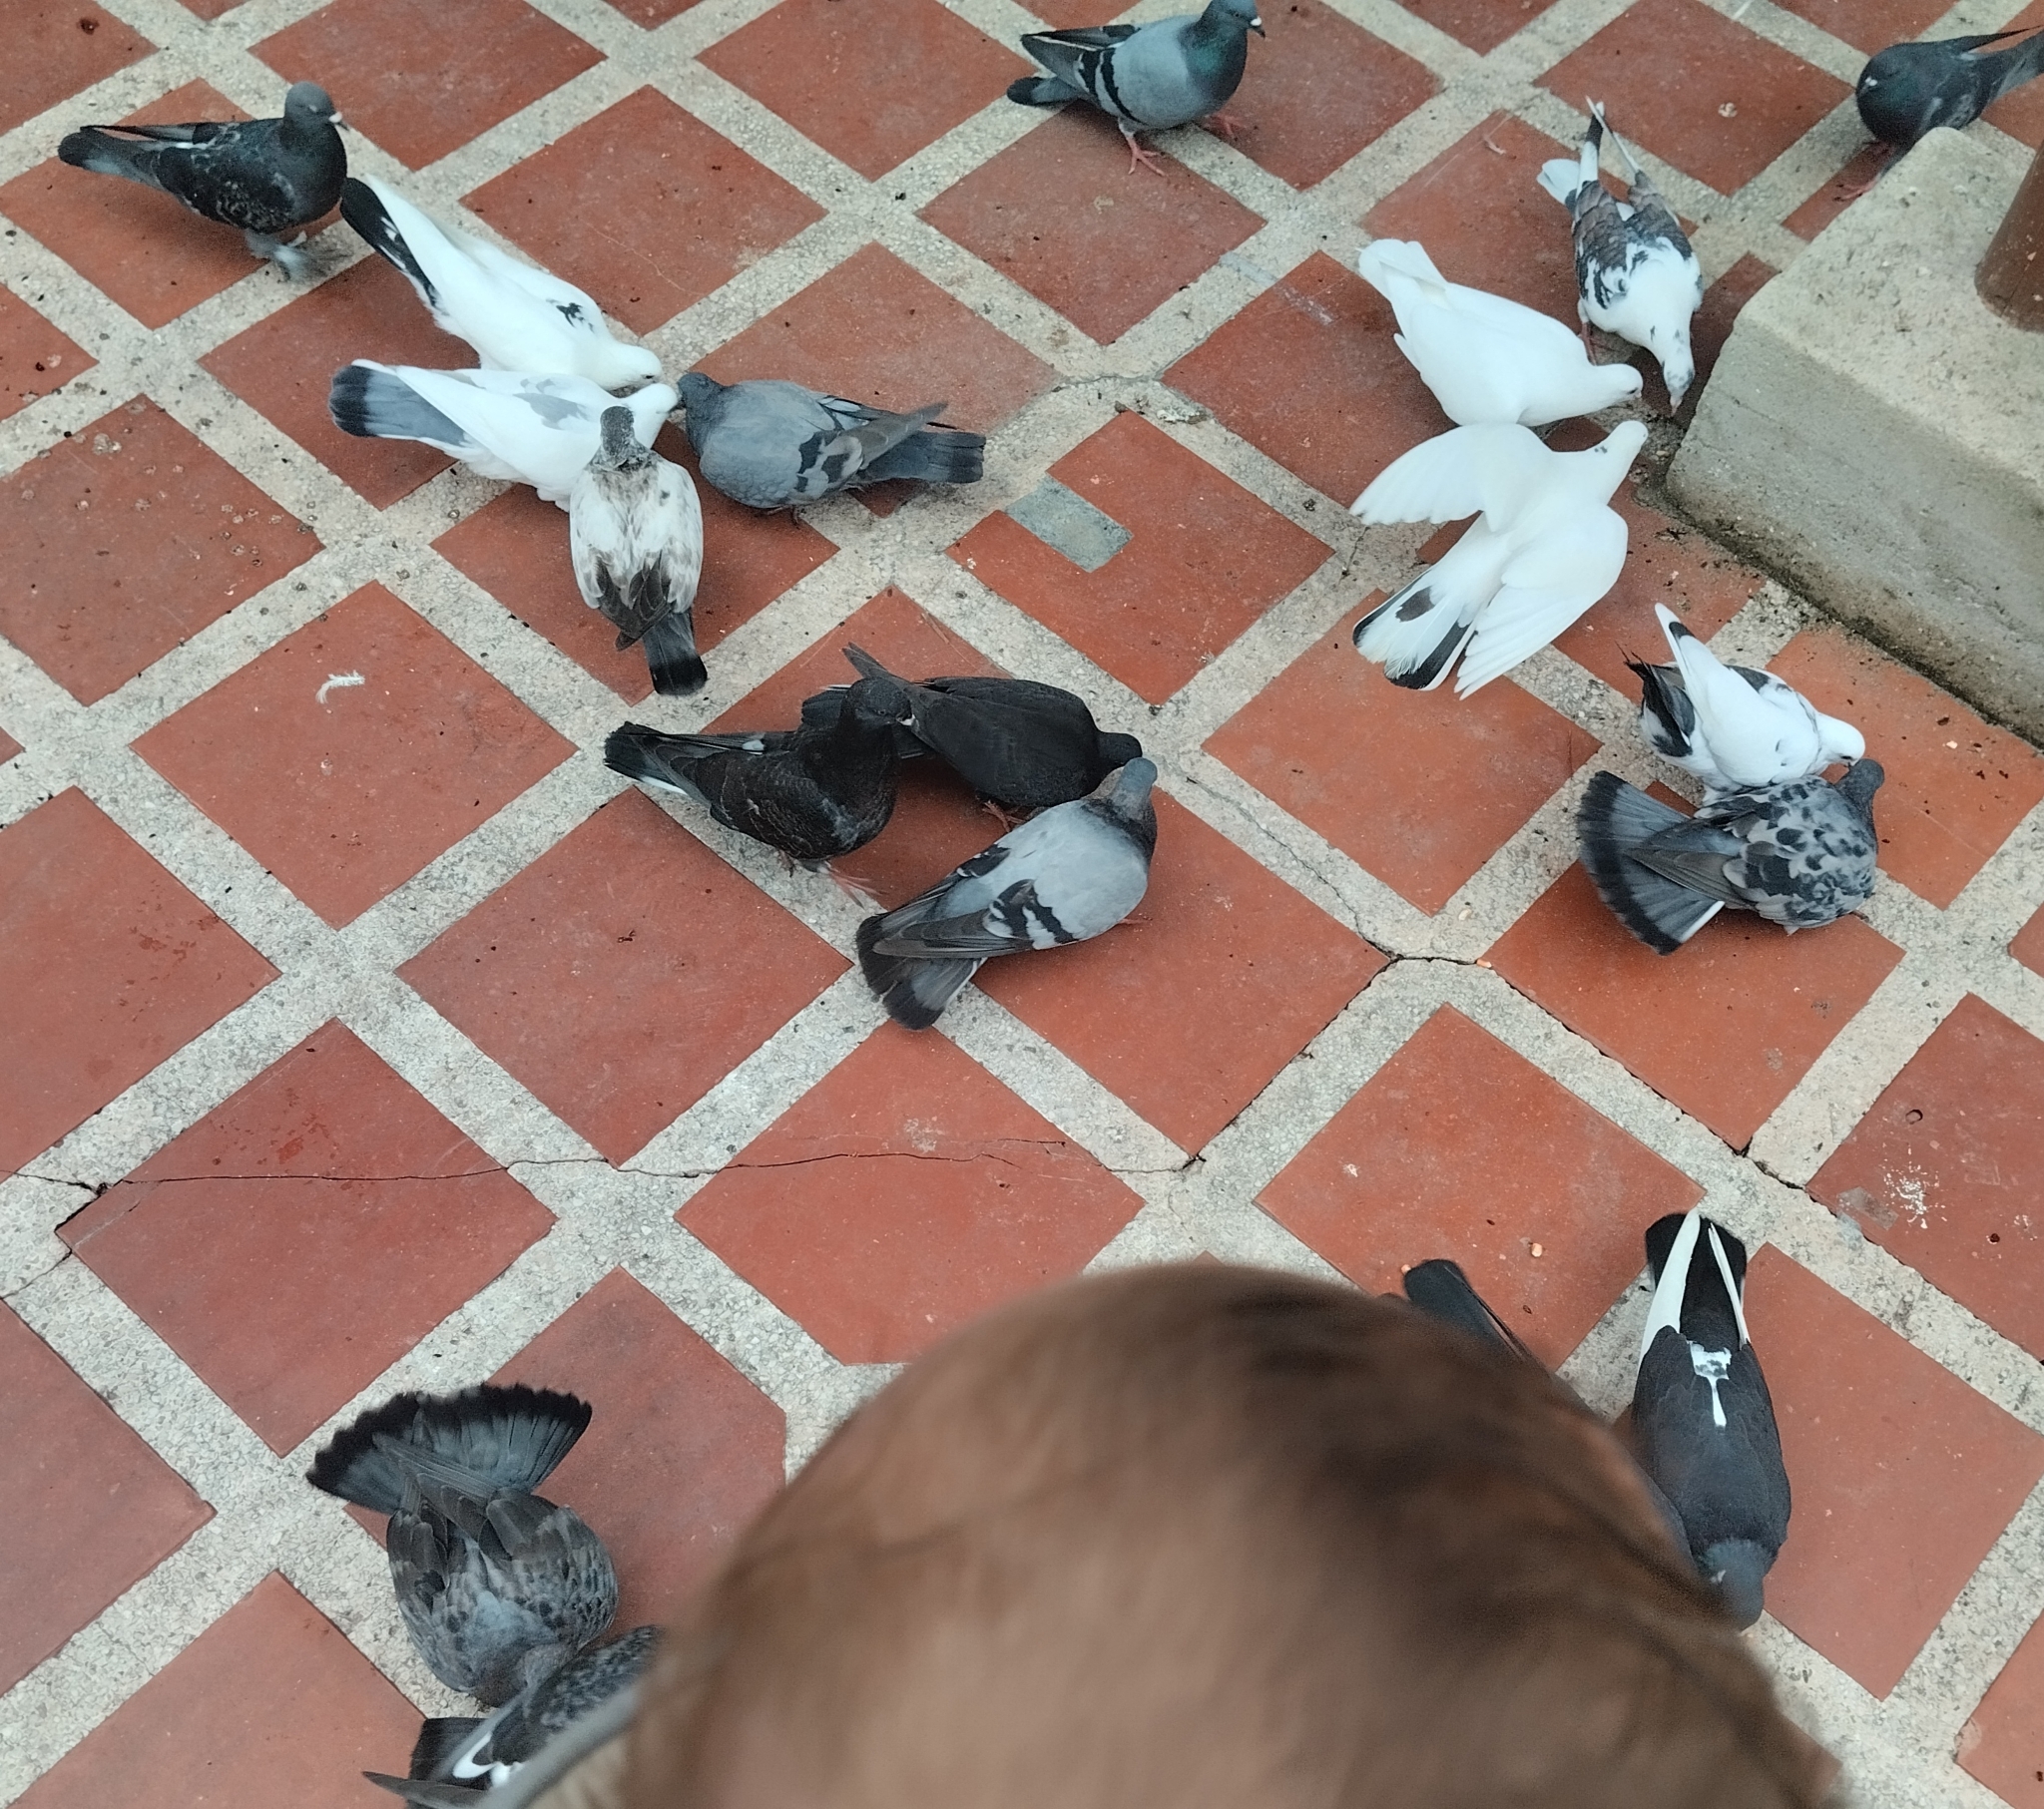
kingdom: Animalia
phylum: Chordata
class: Aves
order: Columbiformes
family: Columbidae
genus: Columba
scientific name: Columba livia
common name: Rock pigeon
